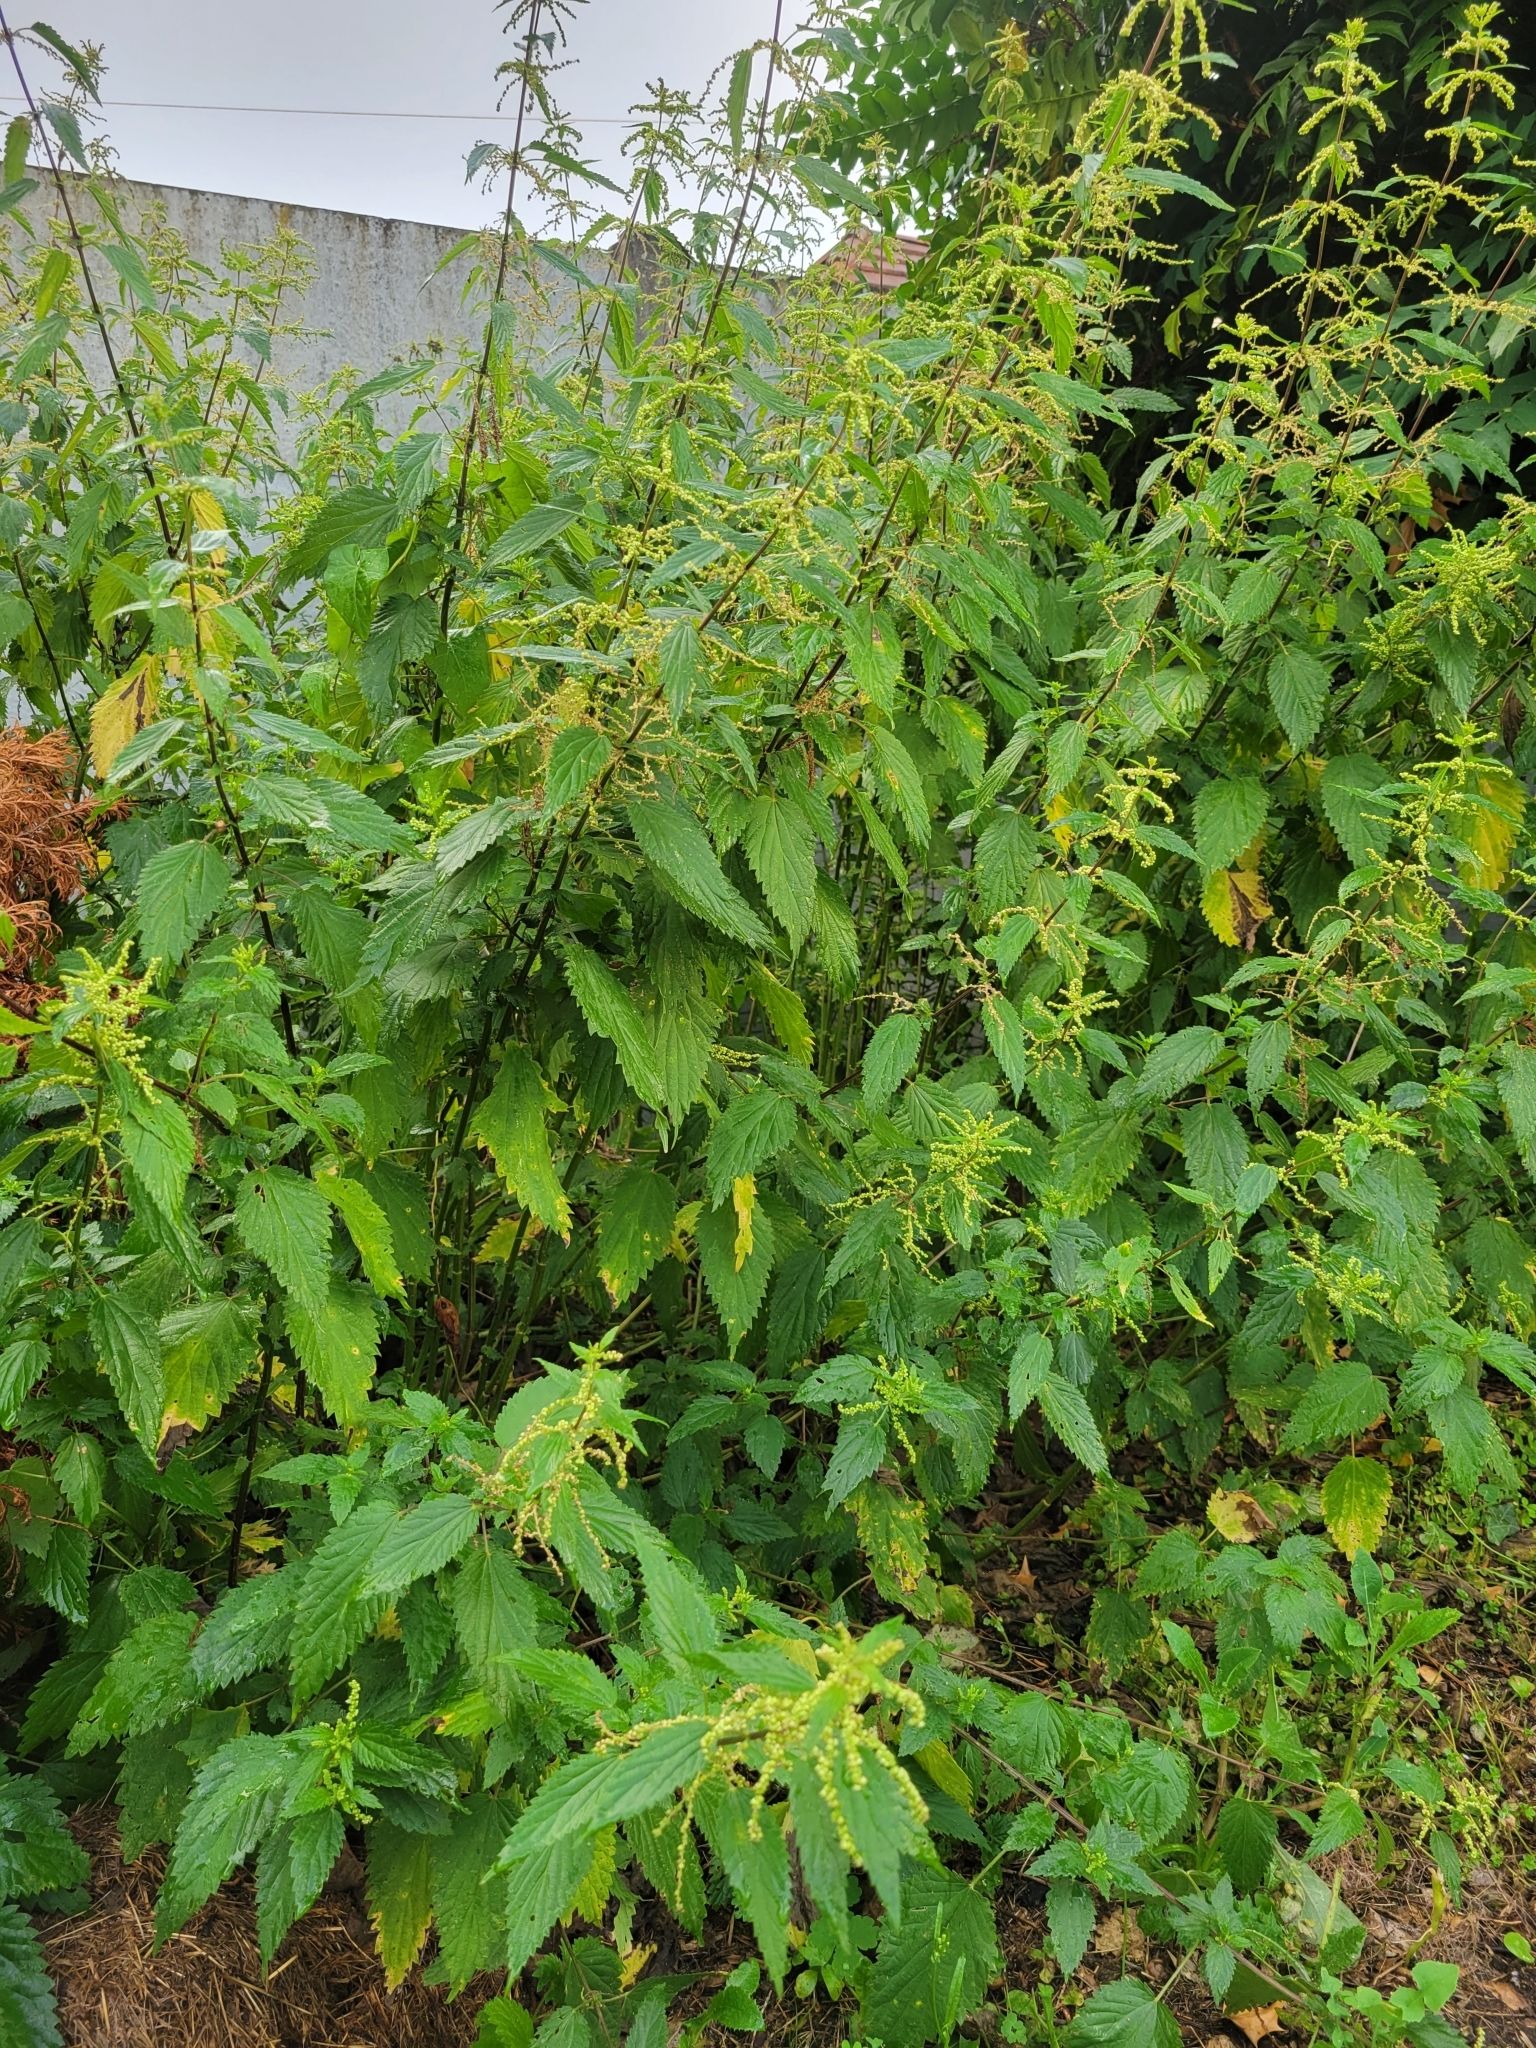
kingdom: Plantae
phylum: Tracheophyta
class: Magnoliopsida
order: Rosales
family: Urticaceae
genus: Urtica
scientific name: Urtica dioica
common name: Common nettle
